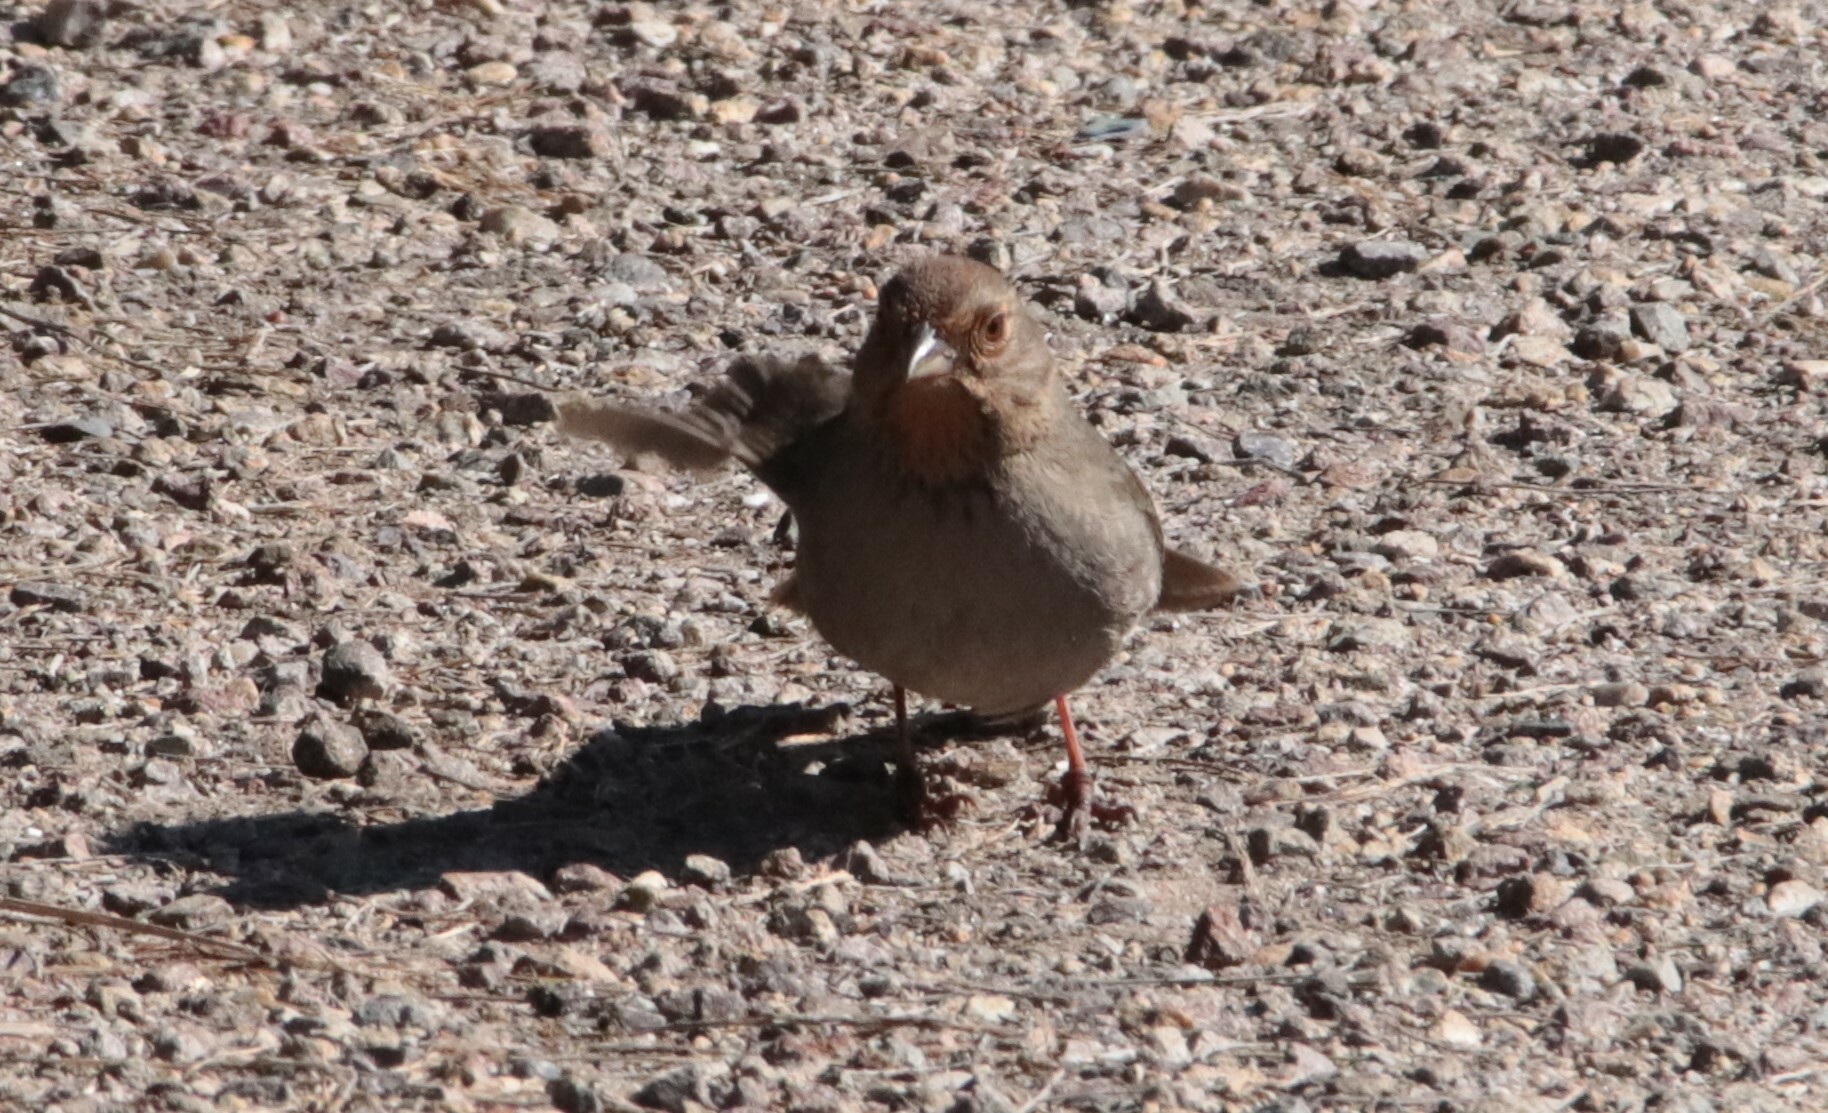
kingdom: Animalia
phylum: Chordata
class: Aves
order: Passeriformes
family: Passerellidae
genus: Melozone
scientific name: Melozone crissalis
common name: California towhee
